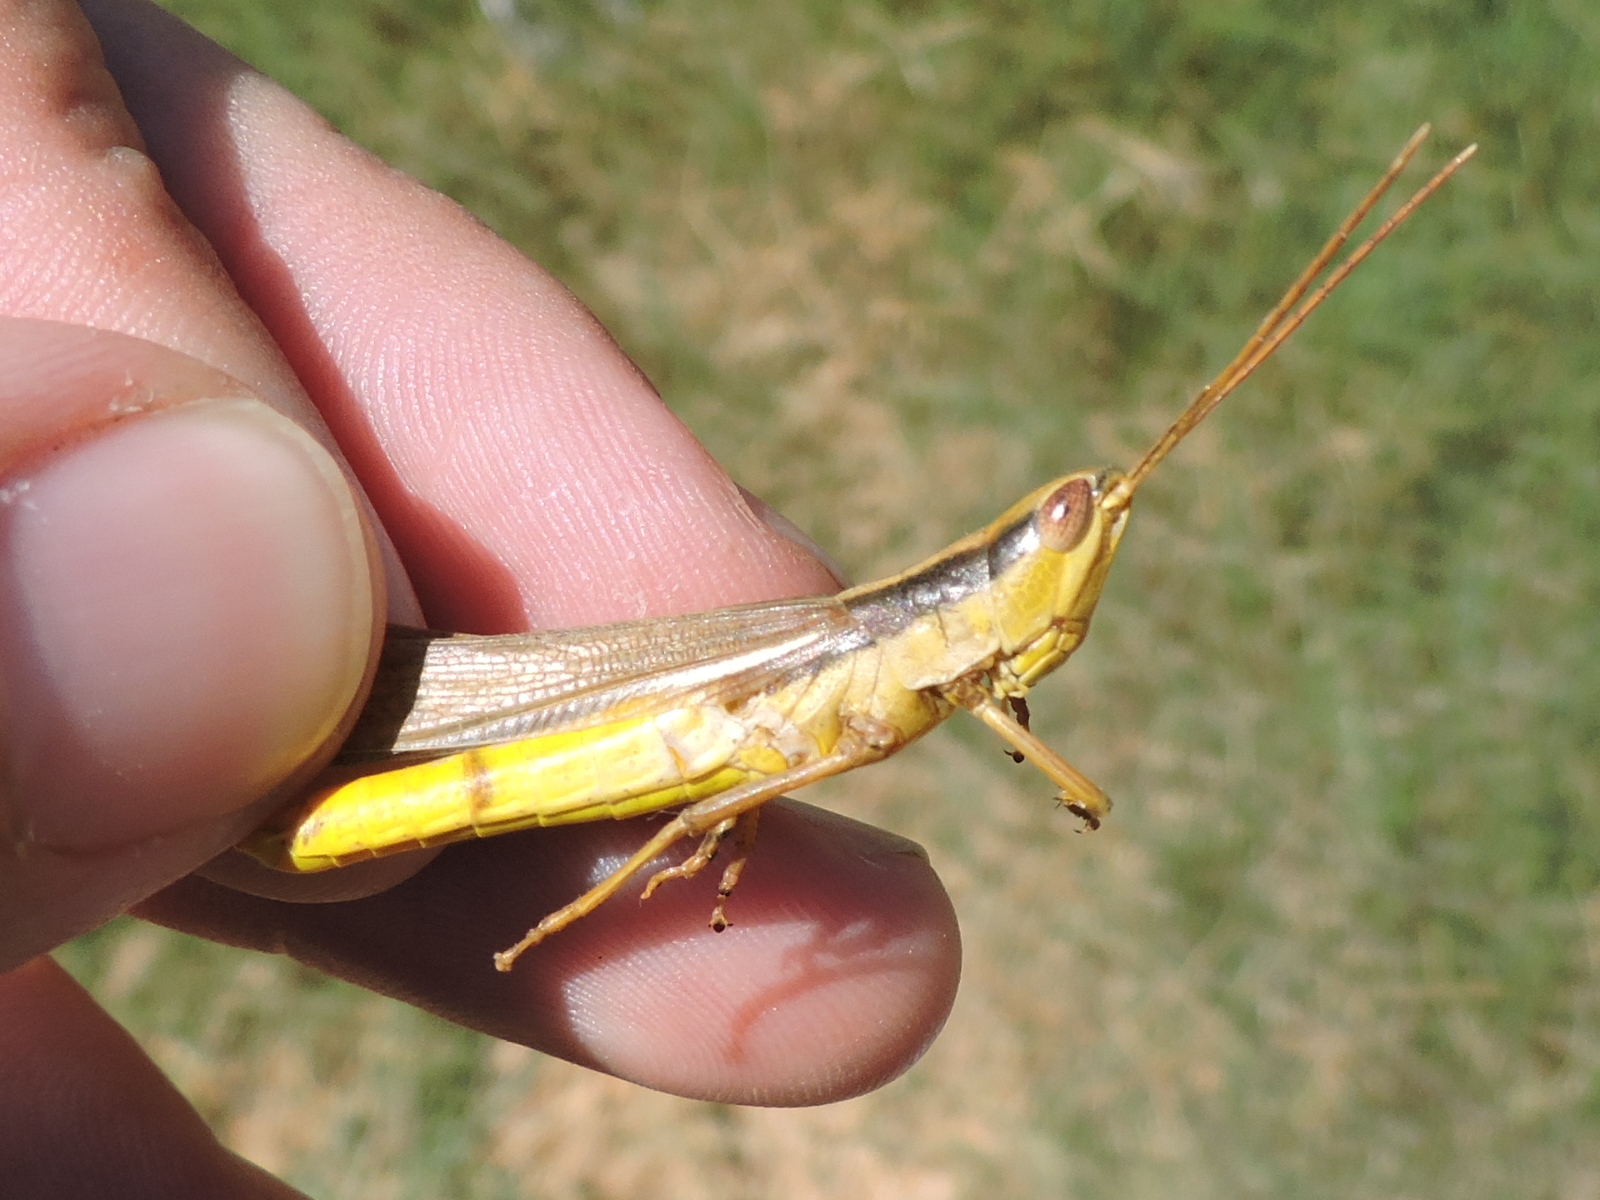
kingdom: Animalia
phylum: Arthropoda
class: Insecta
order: Orthoptera
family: Acrididae
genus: Mermiria
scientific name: Mermiria bivittata
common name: Two-striped mermiria grasshopper
